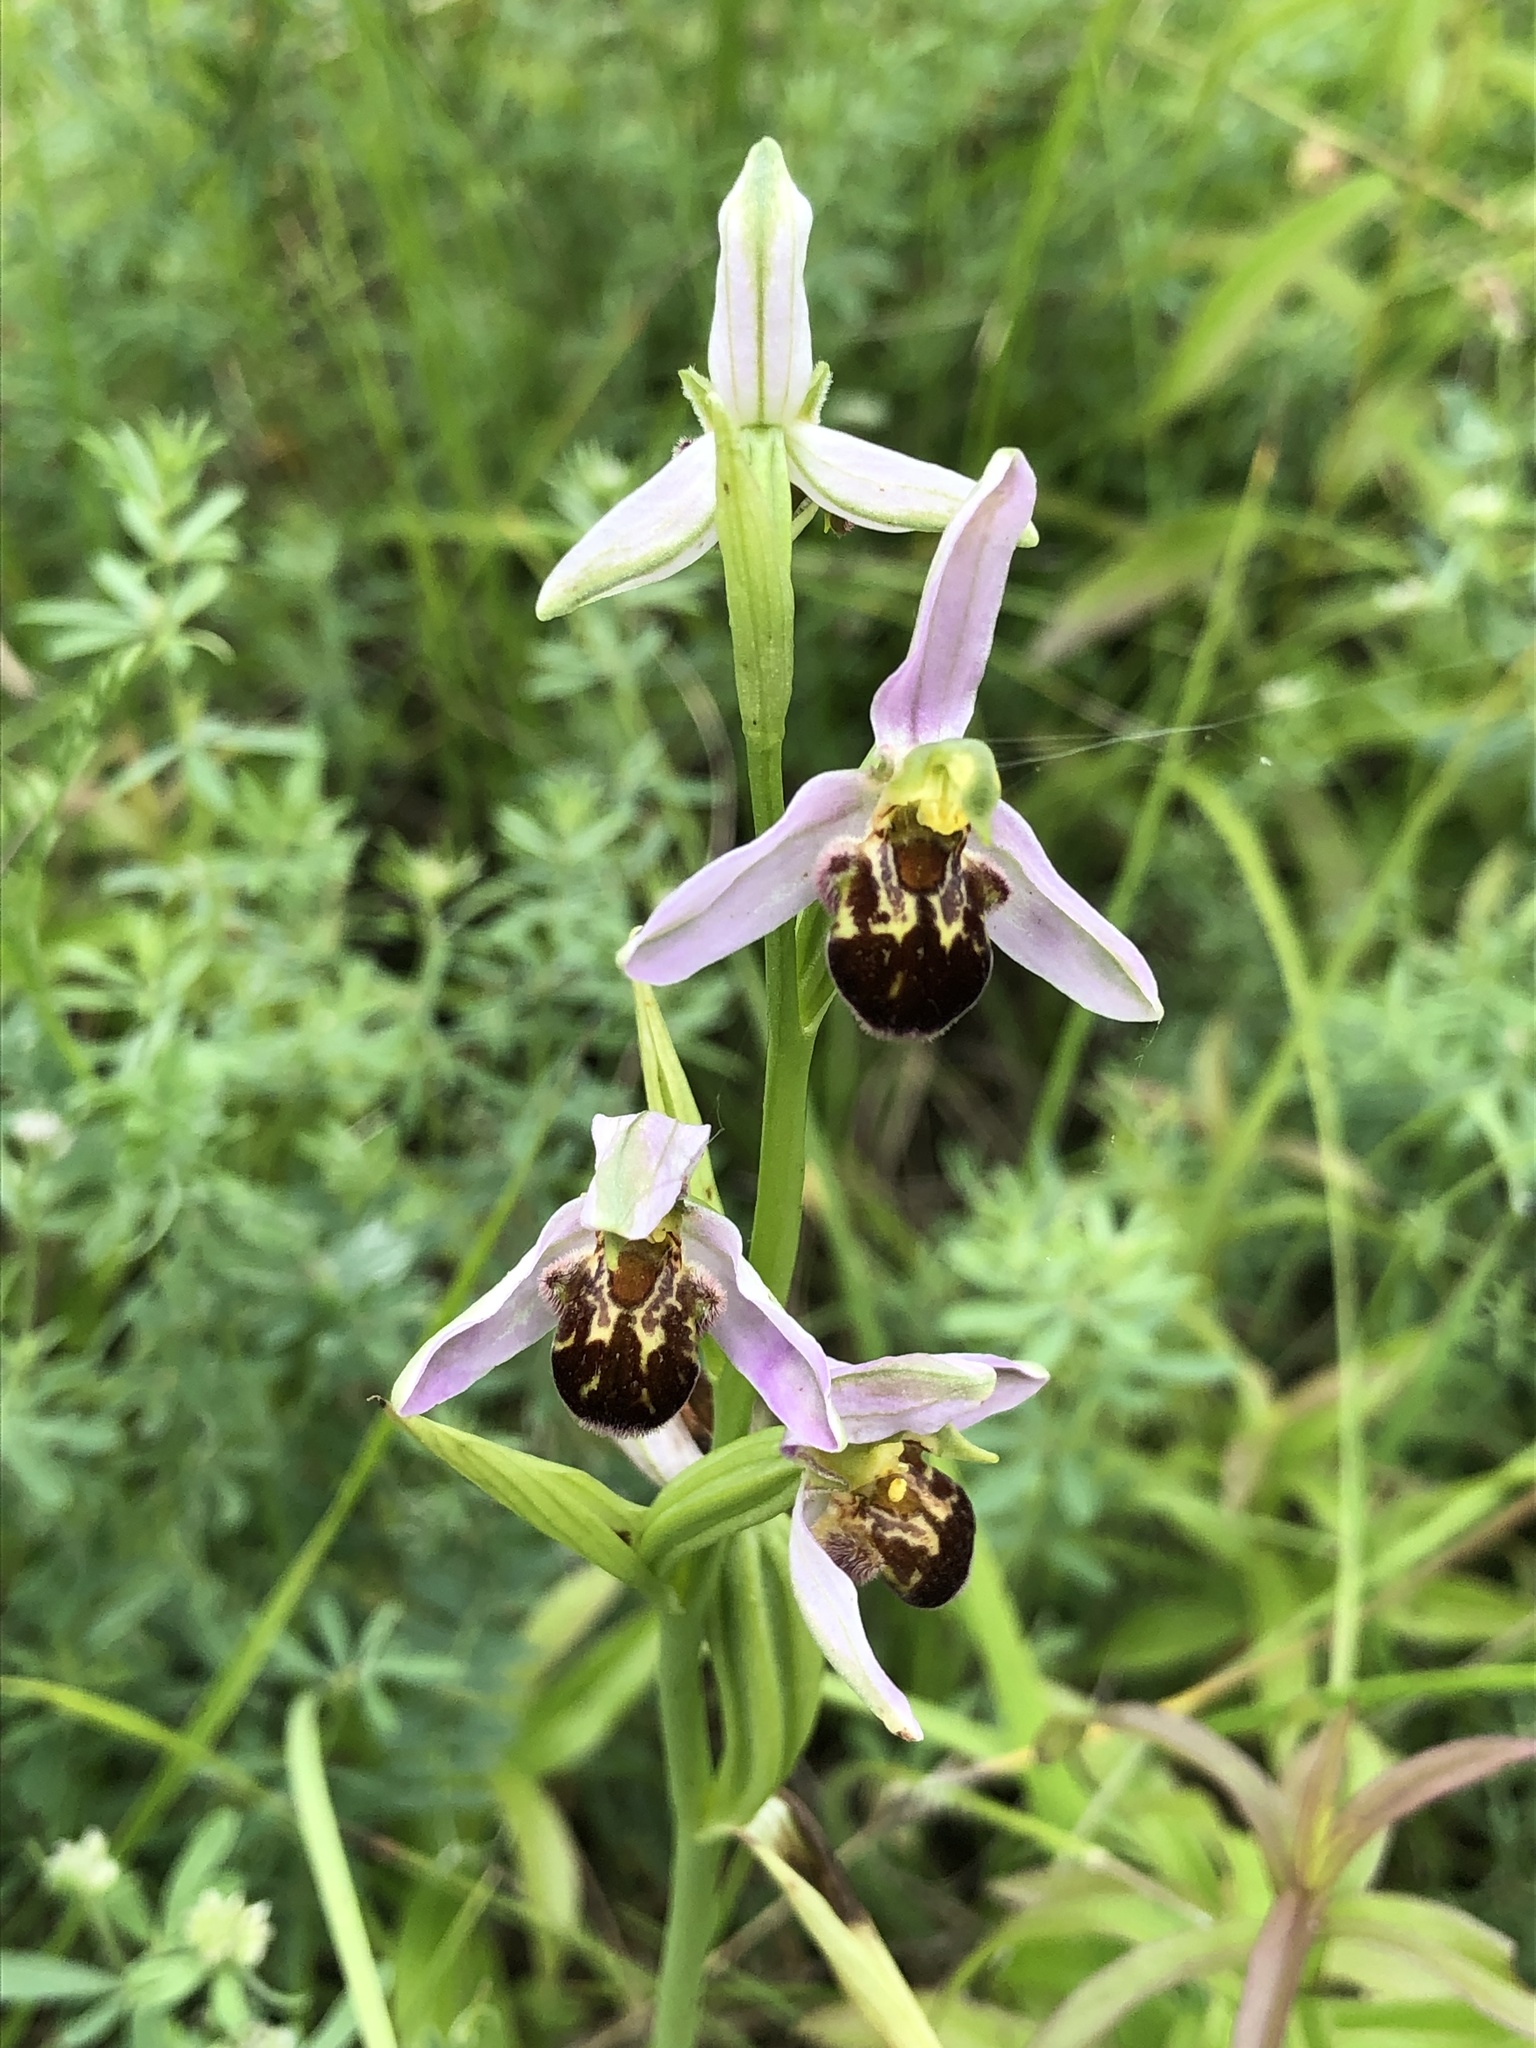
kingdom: Plantae
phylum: Tracheophyta
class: Liliopsida
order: Asparagales
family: Orchidaceae
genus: Ophrys
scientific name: Ophrys apifera
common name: Bee orchid
